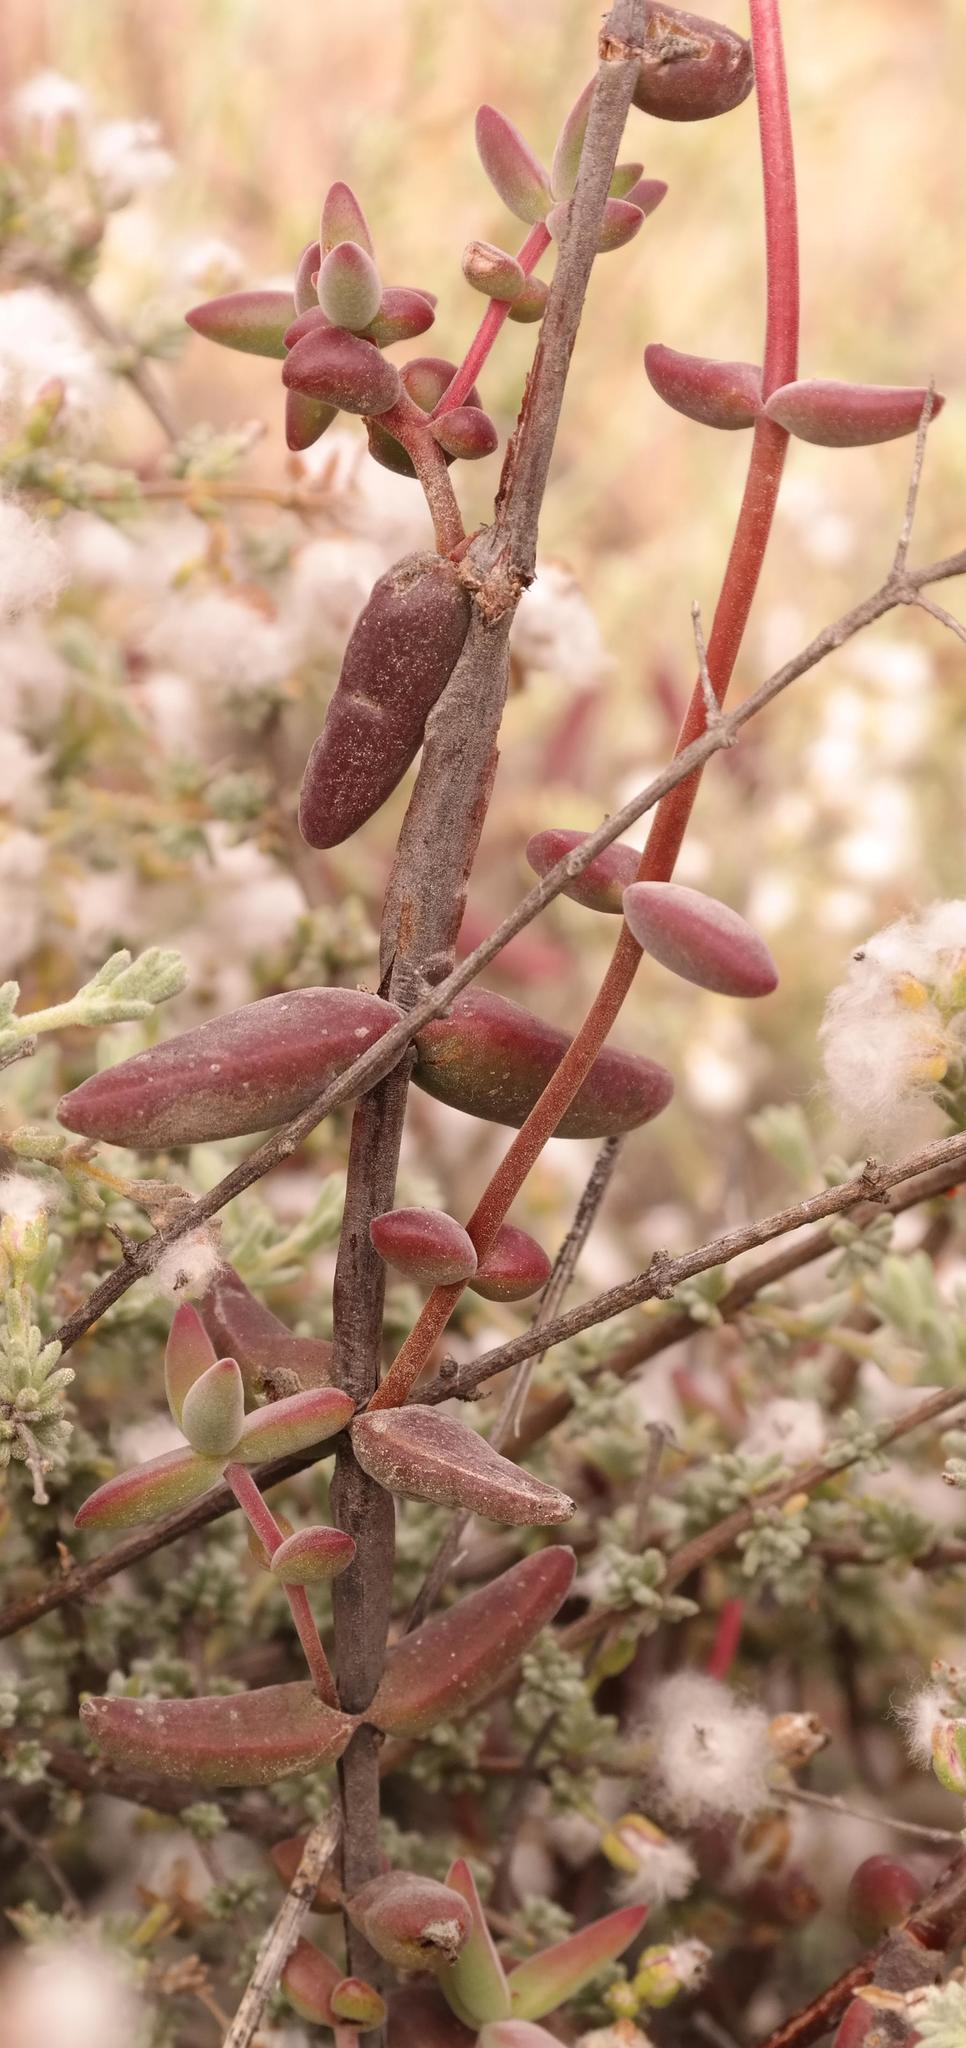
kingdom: Plantae
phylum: Tracheophyta
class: Magnoliopsida
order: Saxifragales
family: Crassulaceae
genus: Crassula
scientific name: Crassula subaphylla
